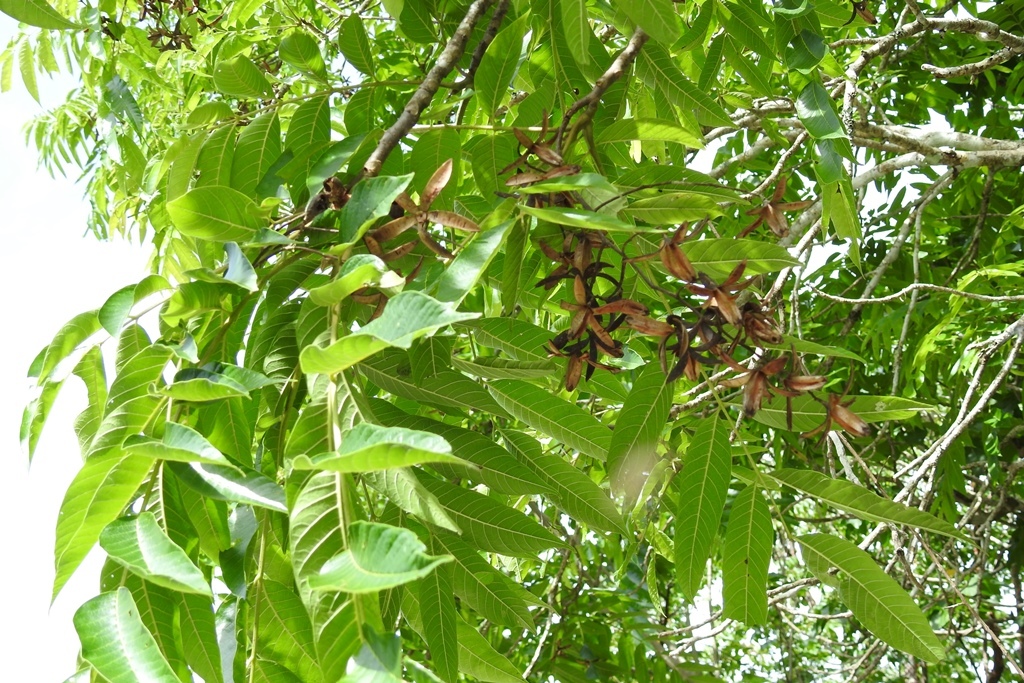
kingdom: Plantae
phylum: Tracheophyta
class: Magnoliopsida
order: Sapindales
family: Meliaceae
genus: Cedrela
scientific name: Cedrela odorata
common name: Red cedar
